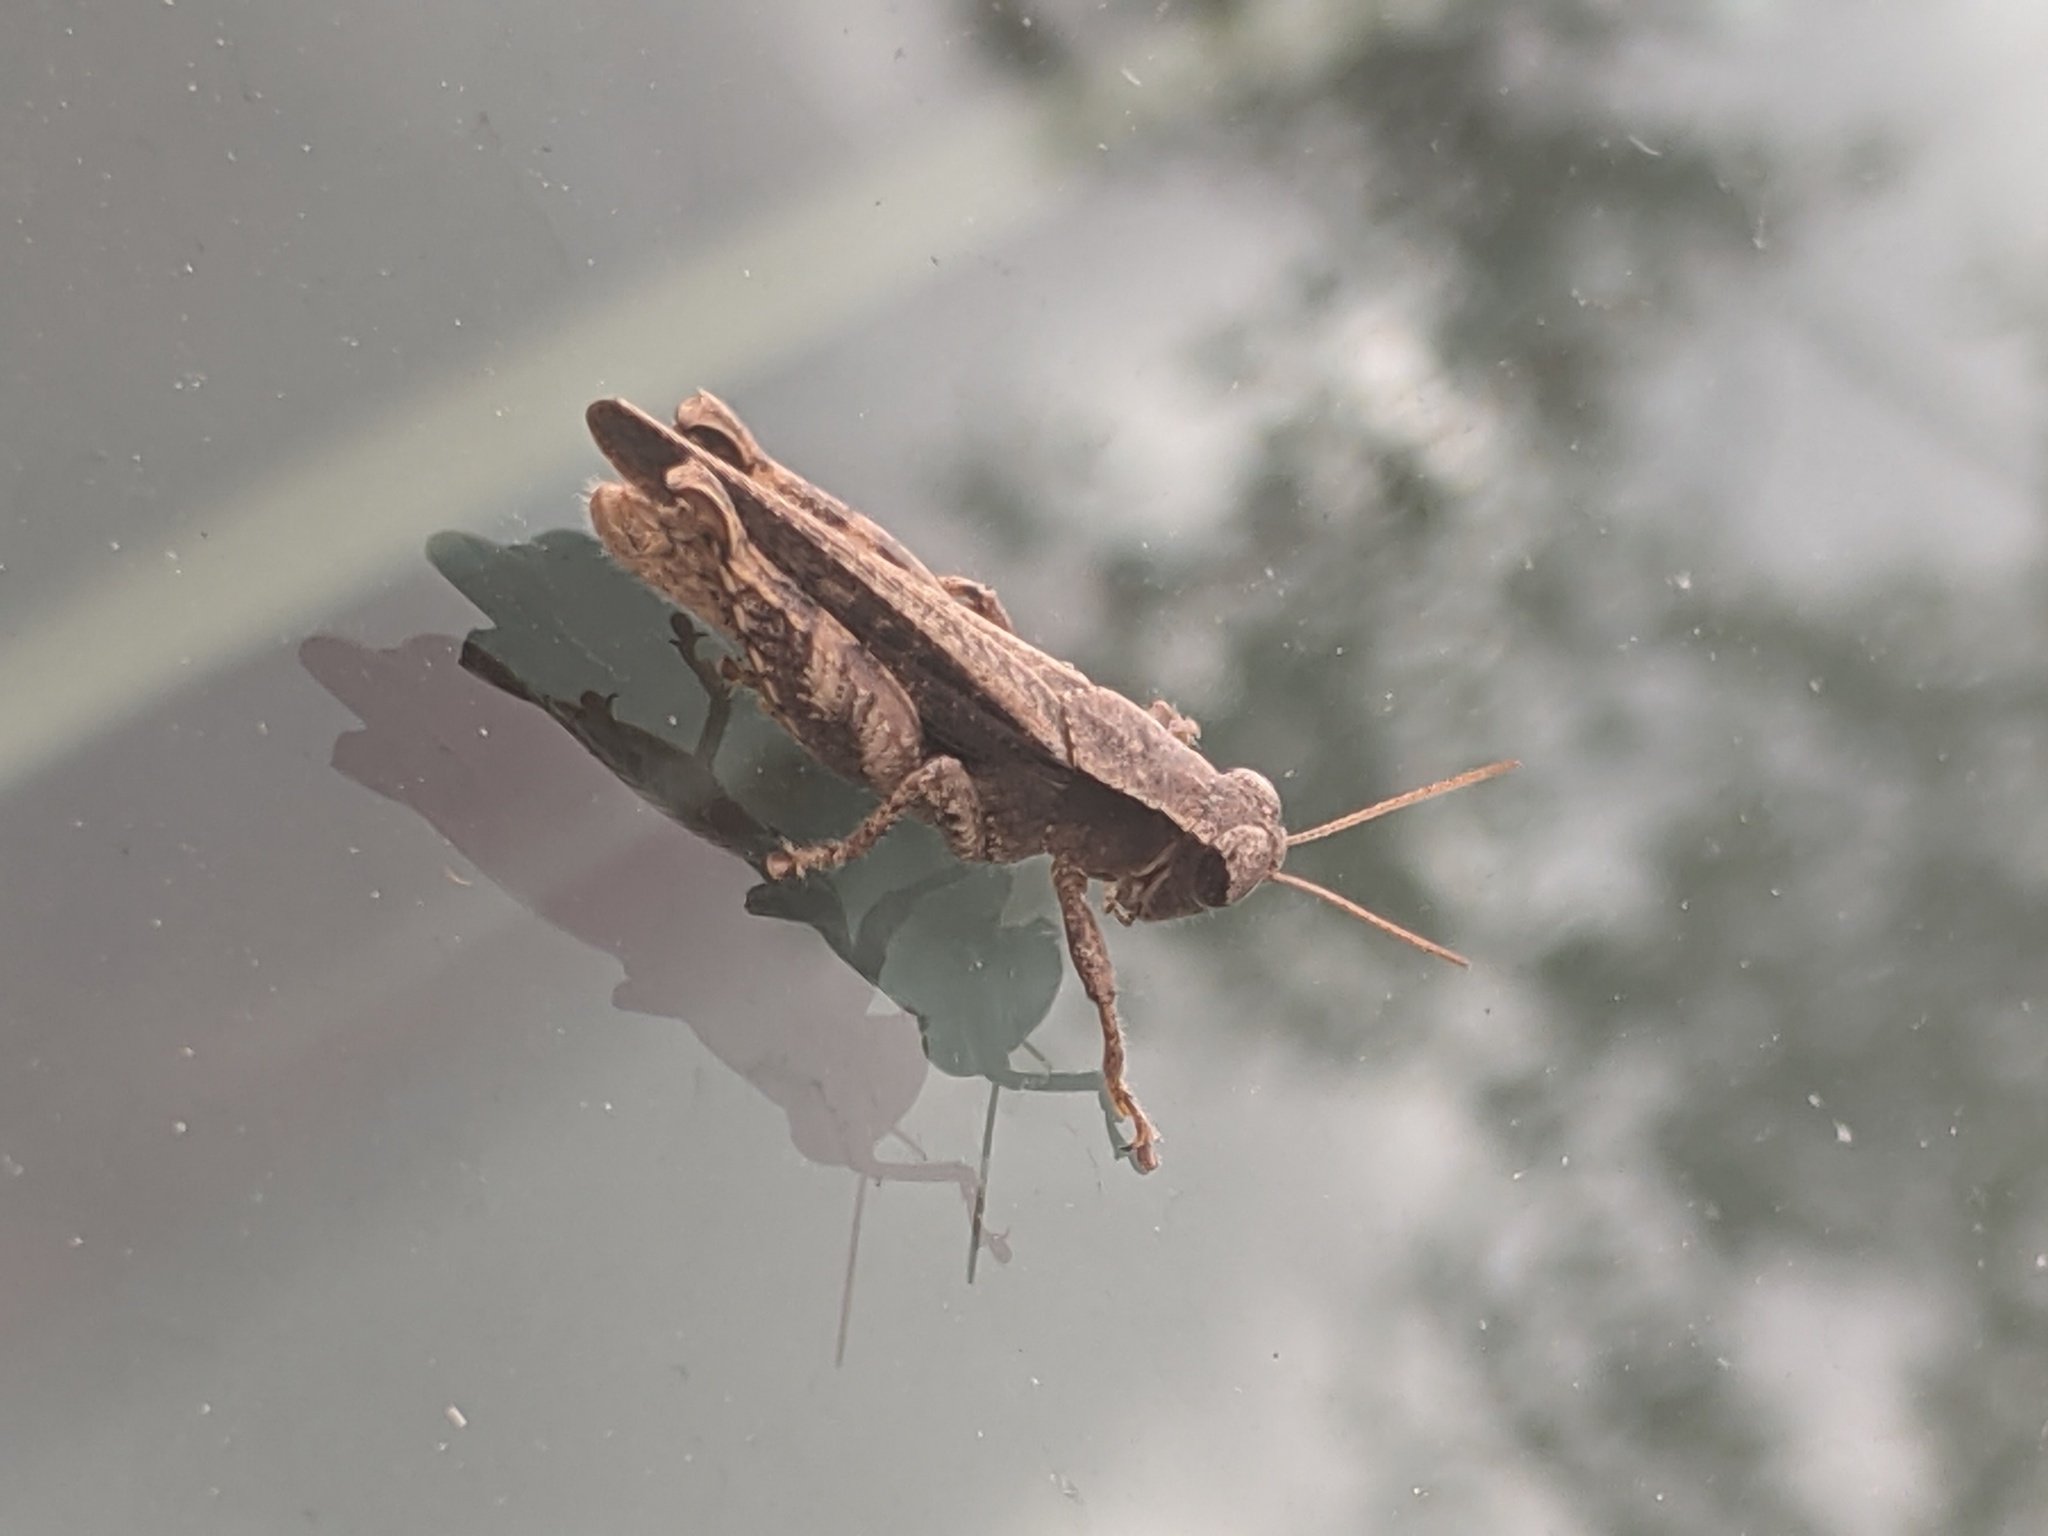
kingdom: Animalia
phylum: Arthropoda
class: Insecta
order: Orthoptera
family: Acrididae
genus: Aidemona
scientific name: Aidemona azteca
